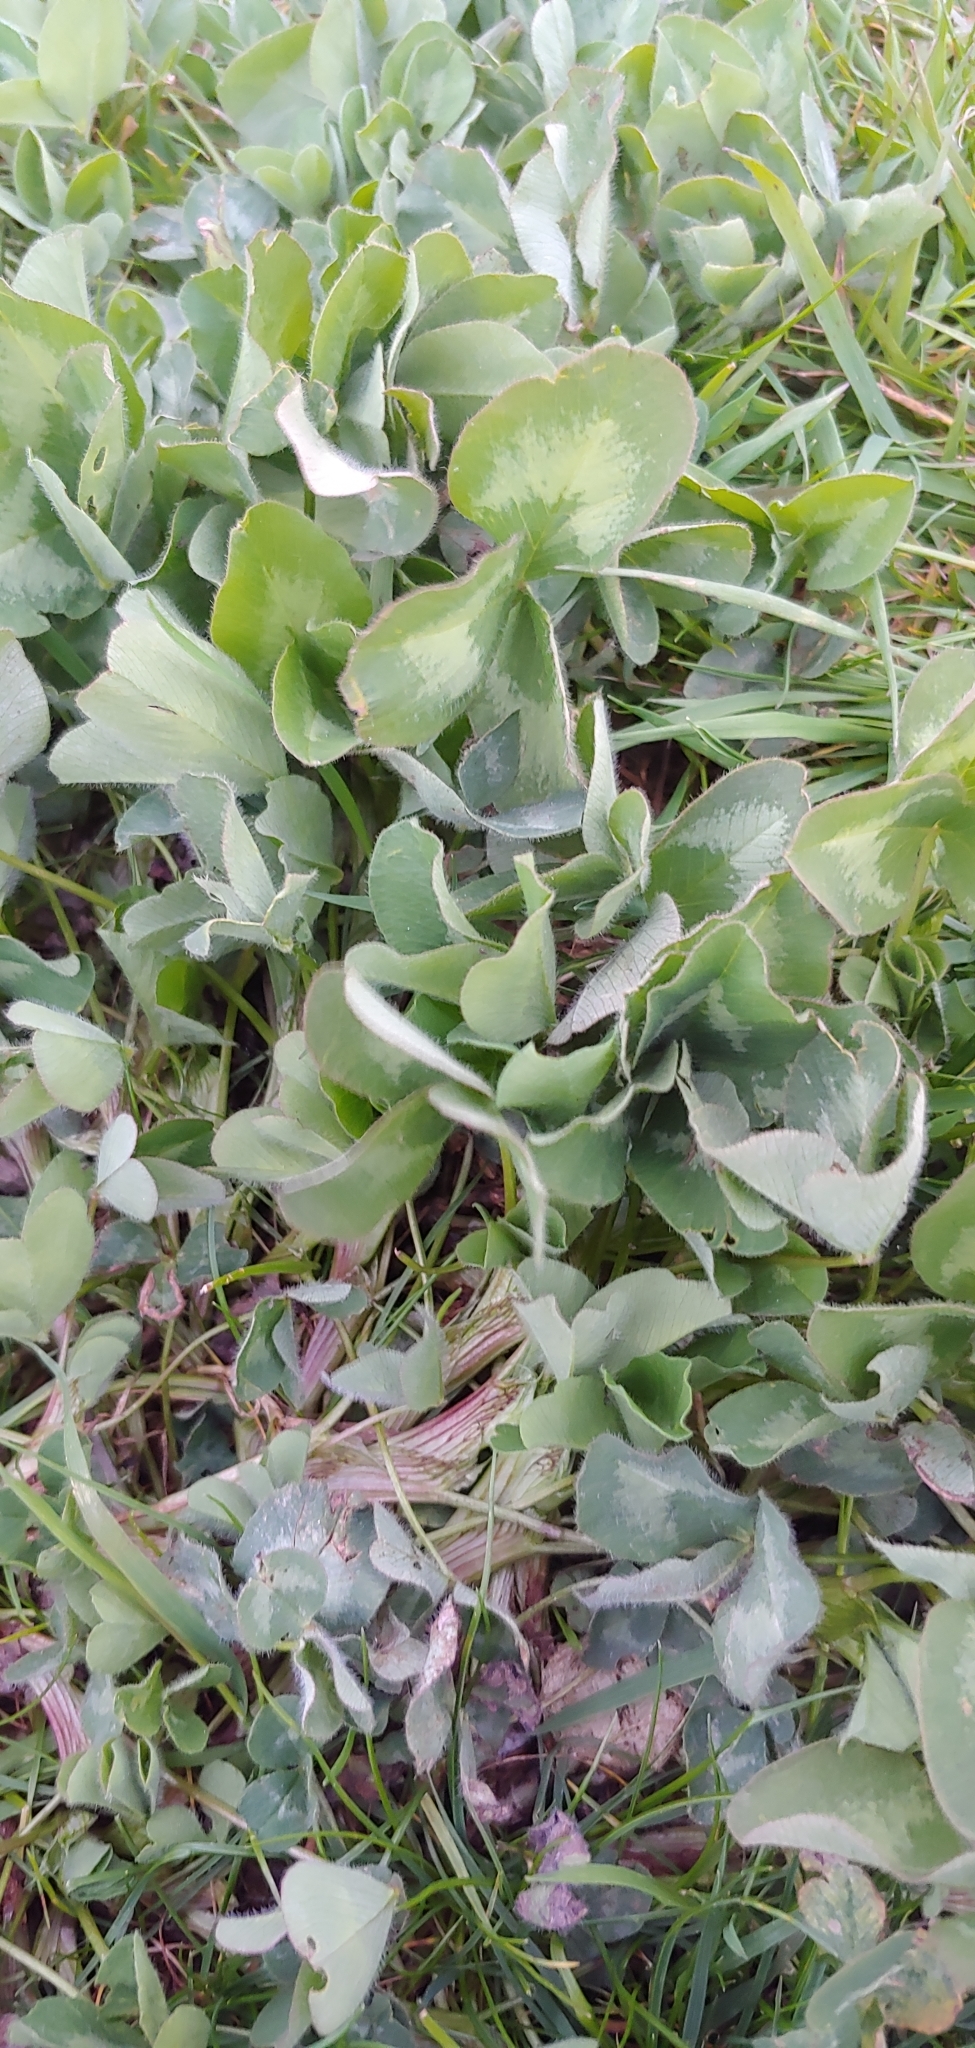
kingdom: Plantae
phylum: Tracheophyta
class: Magnoliopsida
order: Fabales
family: Fabaceae
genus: Trifolium
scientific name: Trifolium pratense
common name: Red clover
